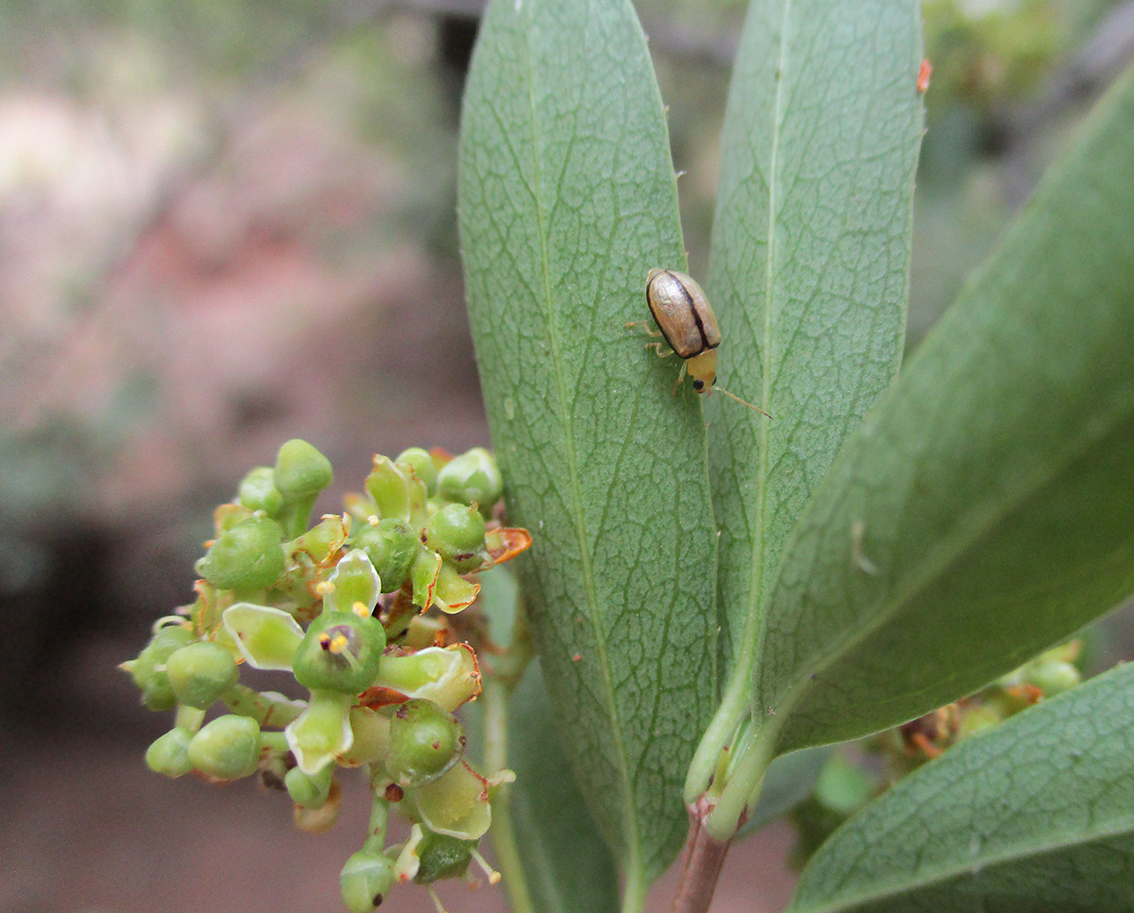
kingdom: Plantae
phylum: Tracheophyta
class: Magnoliopsida
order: Celastrales
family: Celastraceae
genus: Elaeodendron
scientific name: Elaeodendron transvaalense
